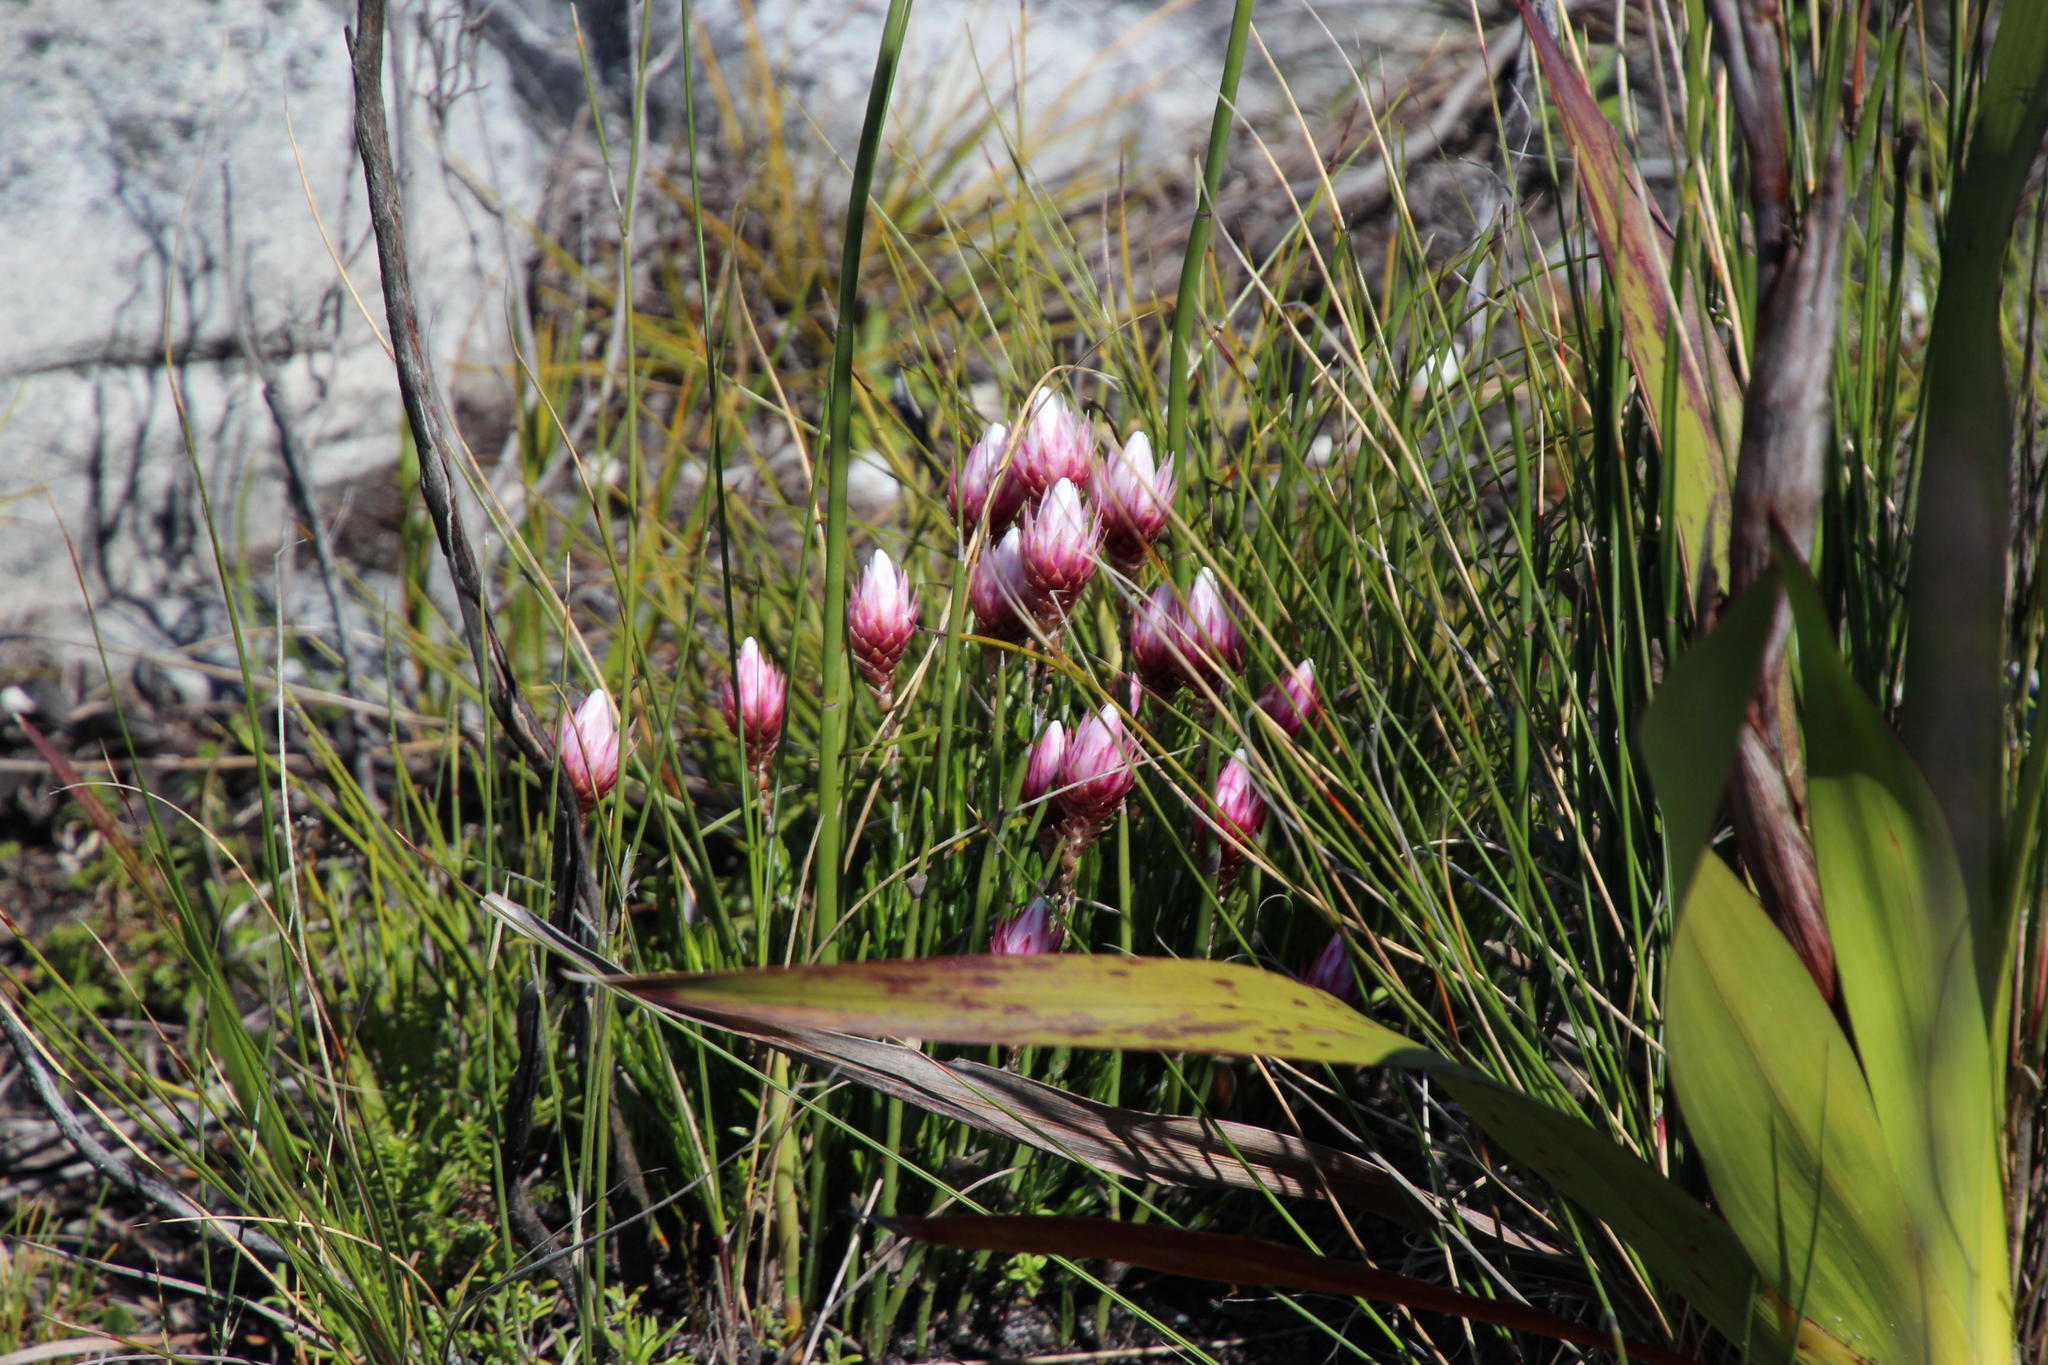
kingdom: Plantae
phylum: Tracheophyta
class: Magnoliopsida
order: Asterales
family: Asteraceae
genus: Edmondia
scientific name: Edmondia pinifolia
